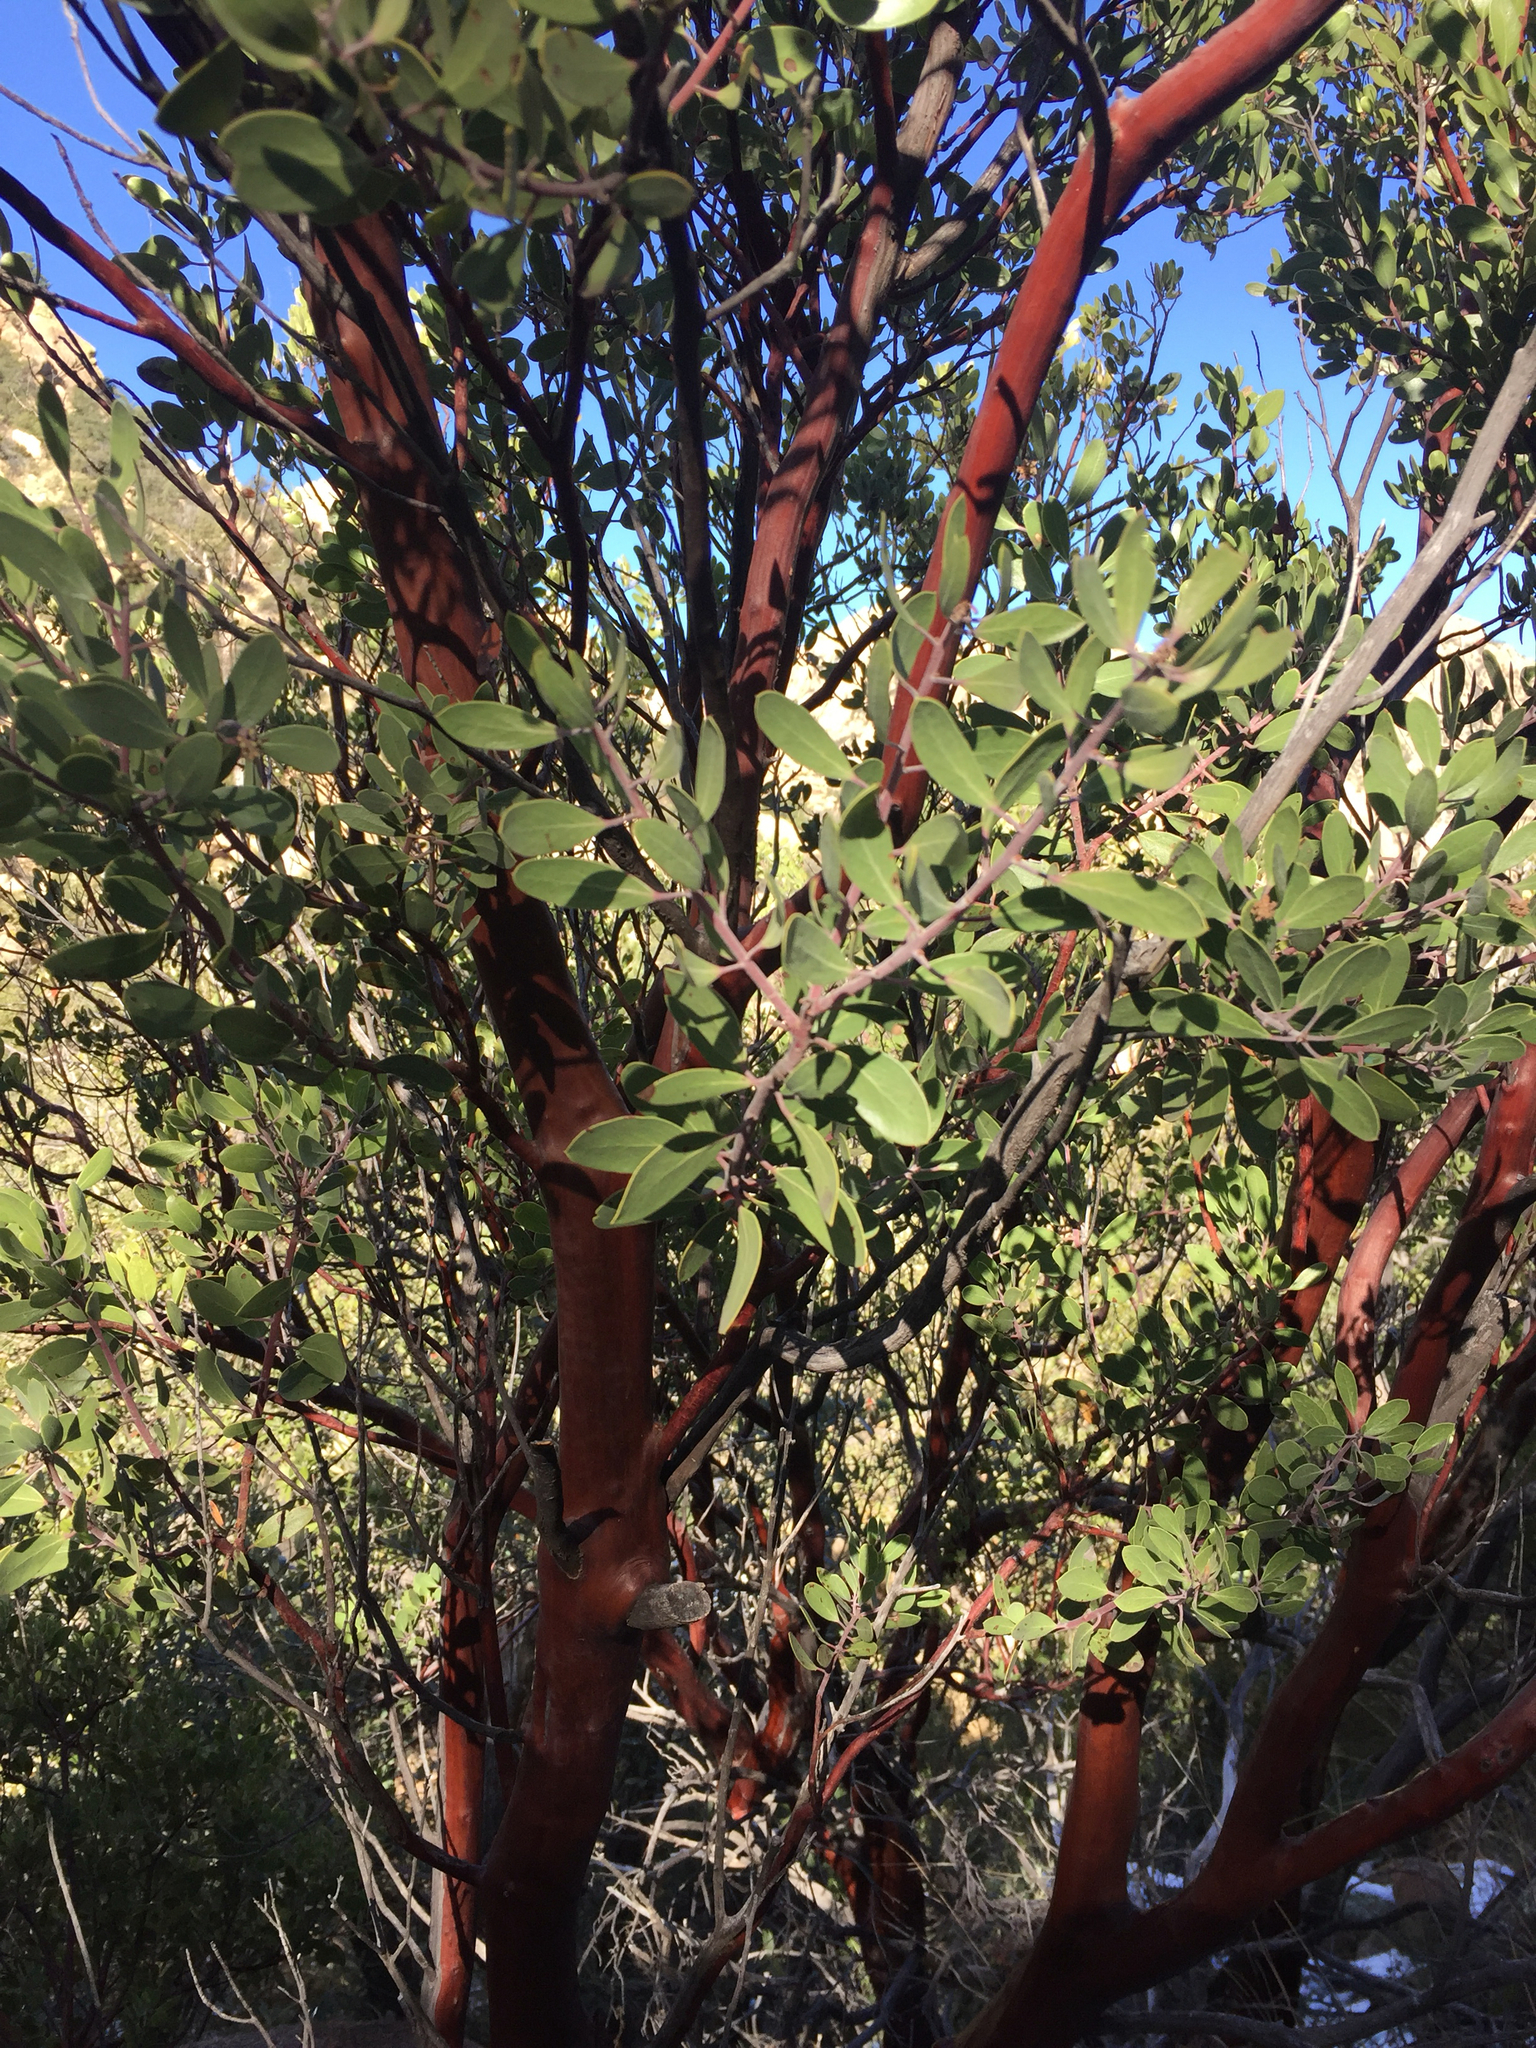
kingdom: Plantae
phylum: Tracheophyta
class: Magnoliopsida
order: Ericales
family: Ericaceae
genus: Arctostaphylos
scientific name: Arctostaphylos pungens
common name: Mexican manzanita
